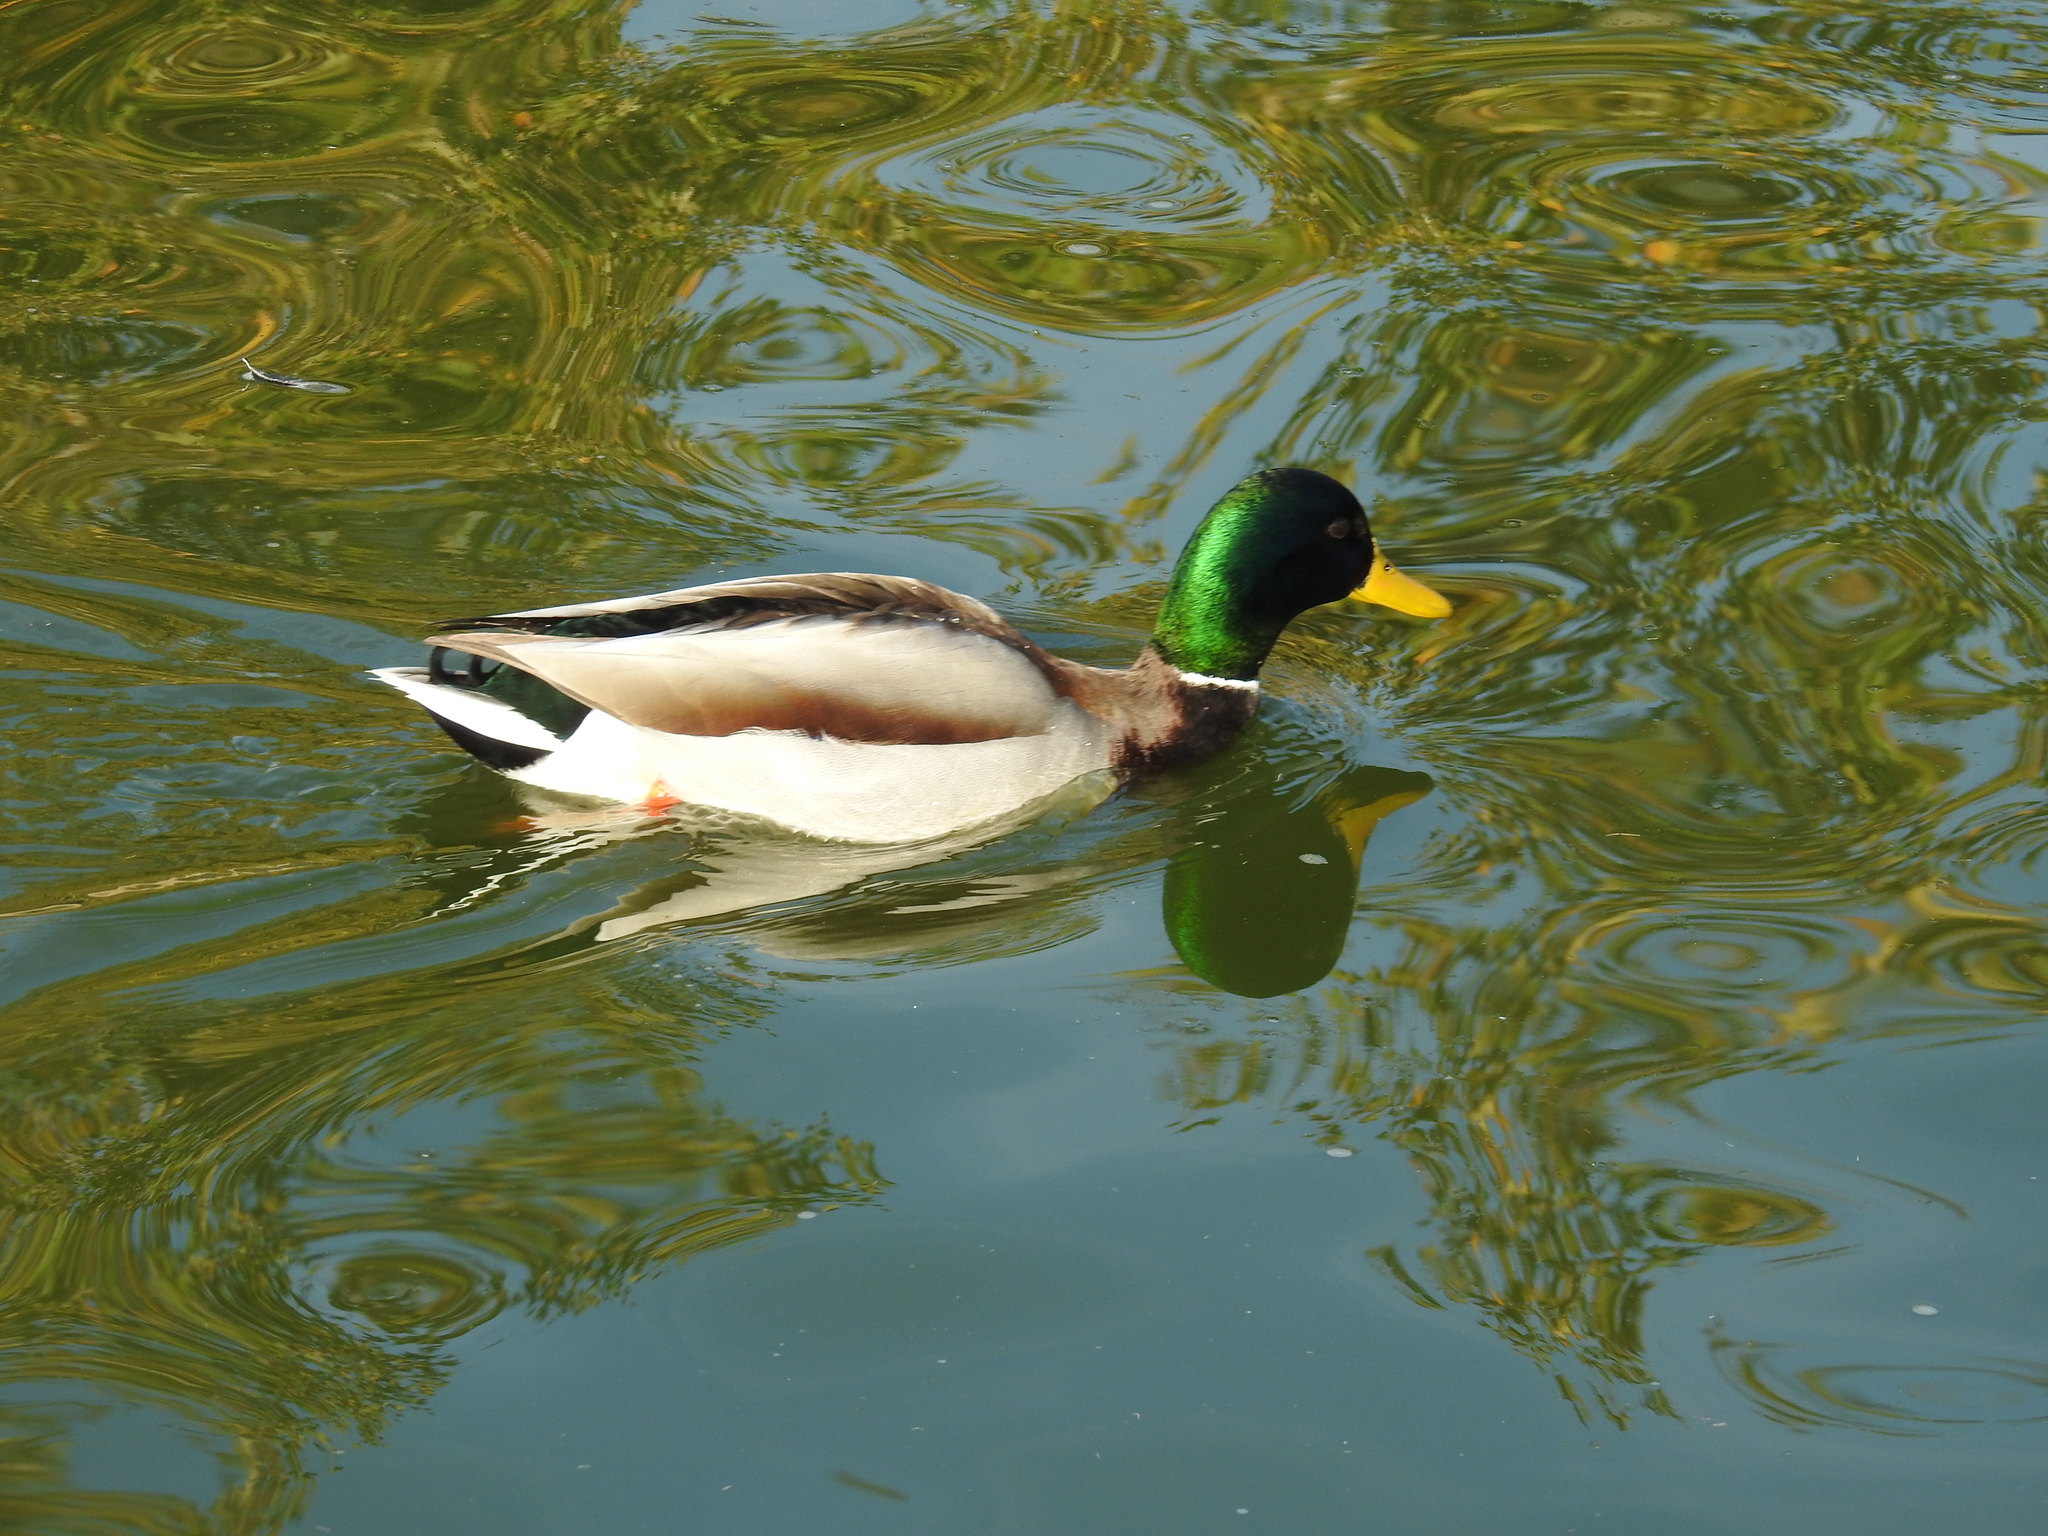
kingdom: Animalia
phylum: Chordata
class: Aves
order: Anseriformes
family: Anatidae
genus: Anas
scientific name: Anas platyrhynchos
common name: Mallard
